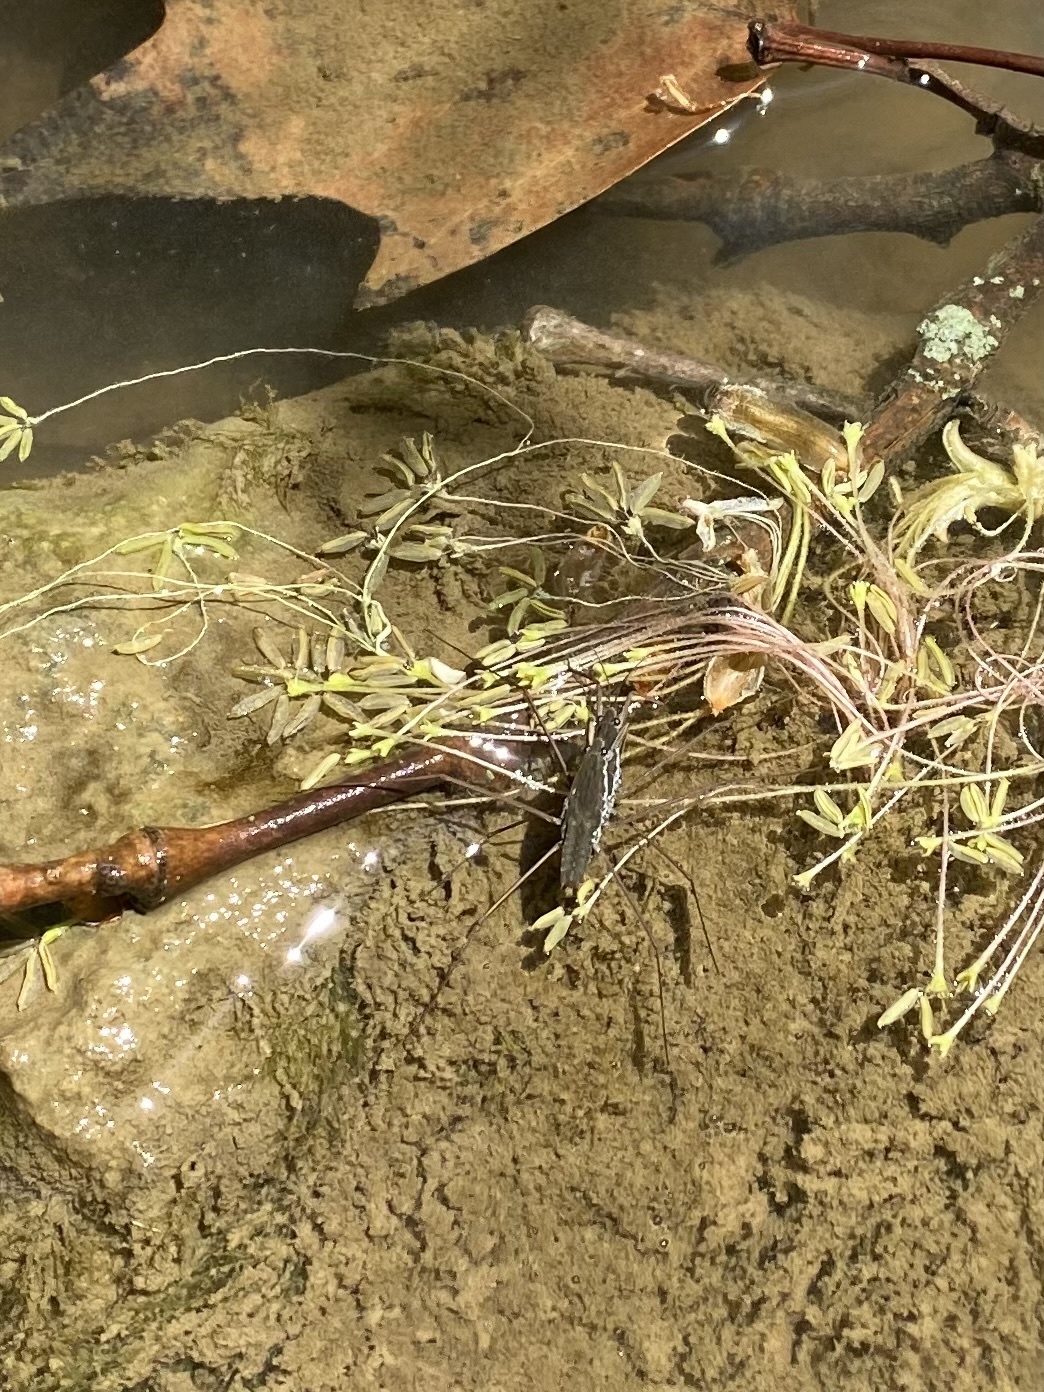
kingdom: Animalia
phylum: Arthropoda
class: Insecta
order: Hemiptera
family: Gerridae
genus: Aquarius
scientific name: Aquarius remigis
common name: Common water strider
